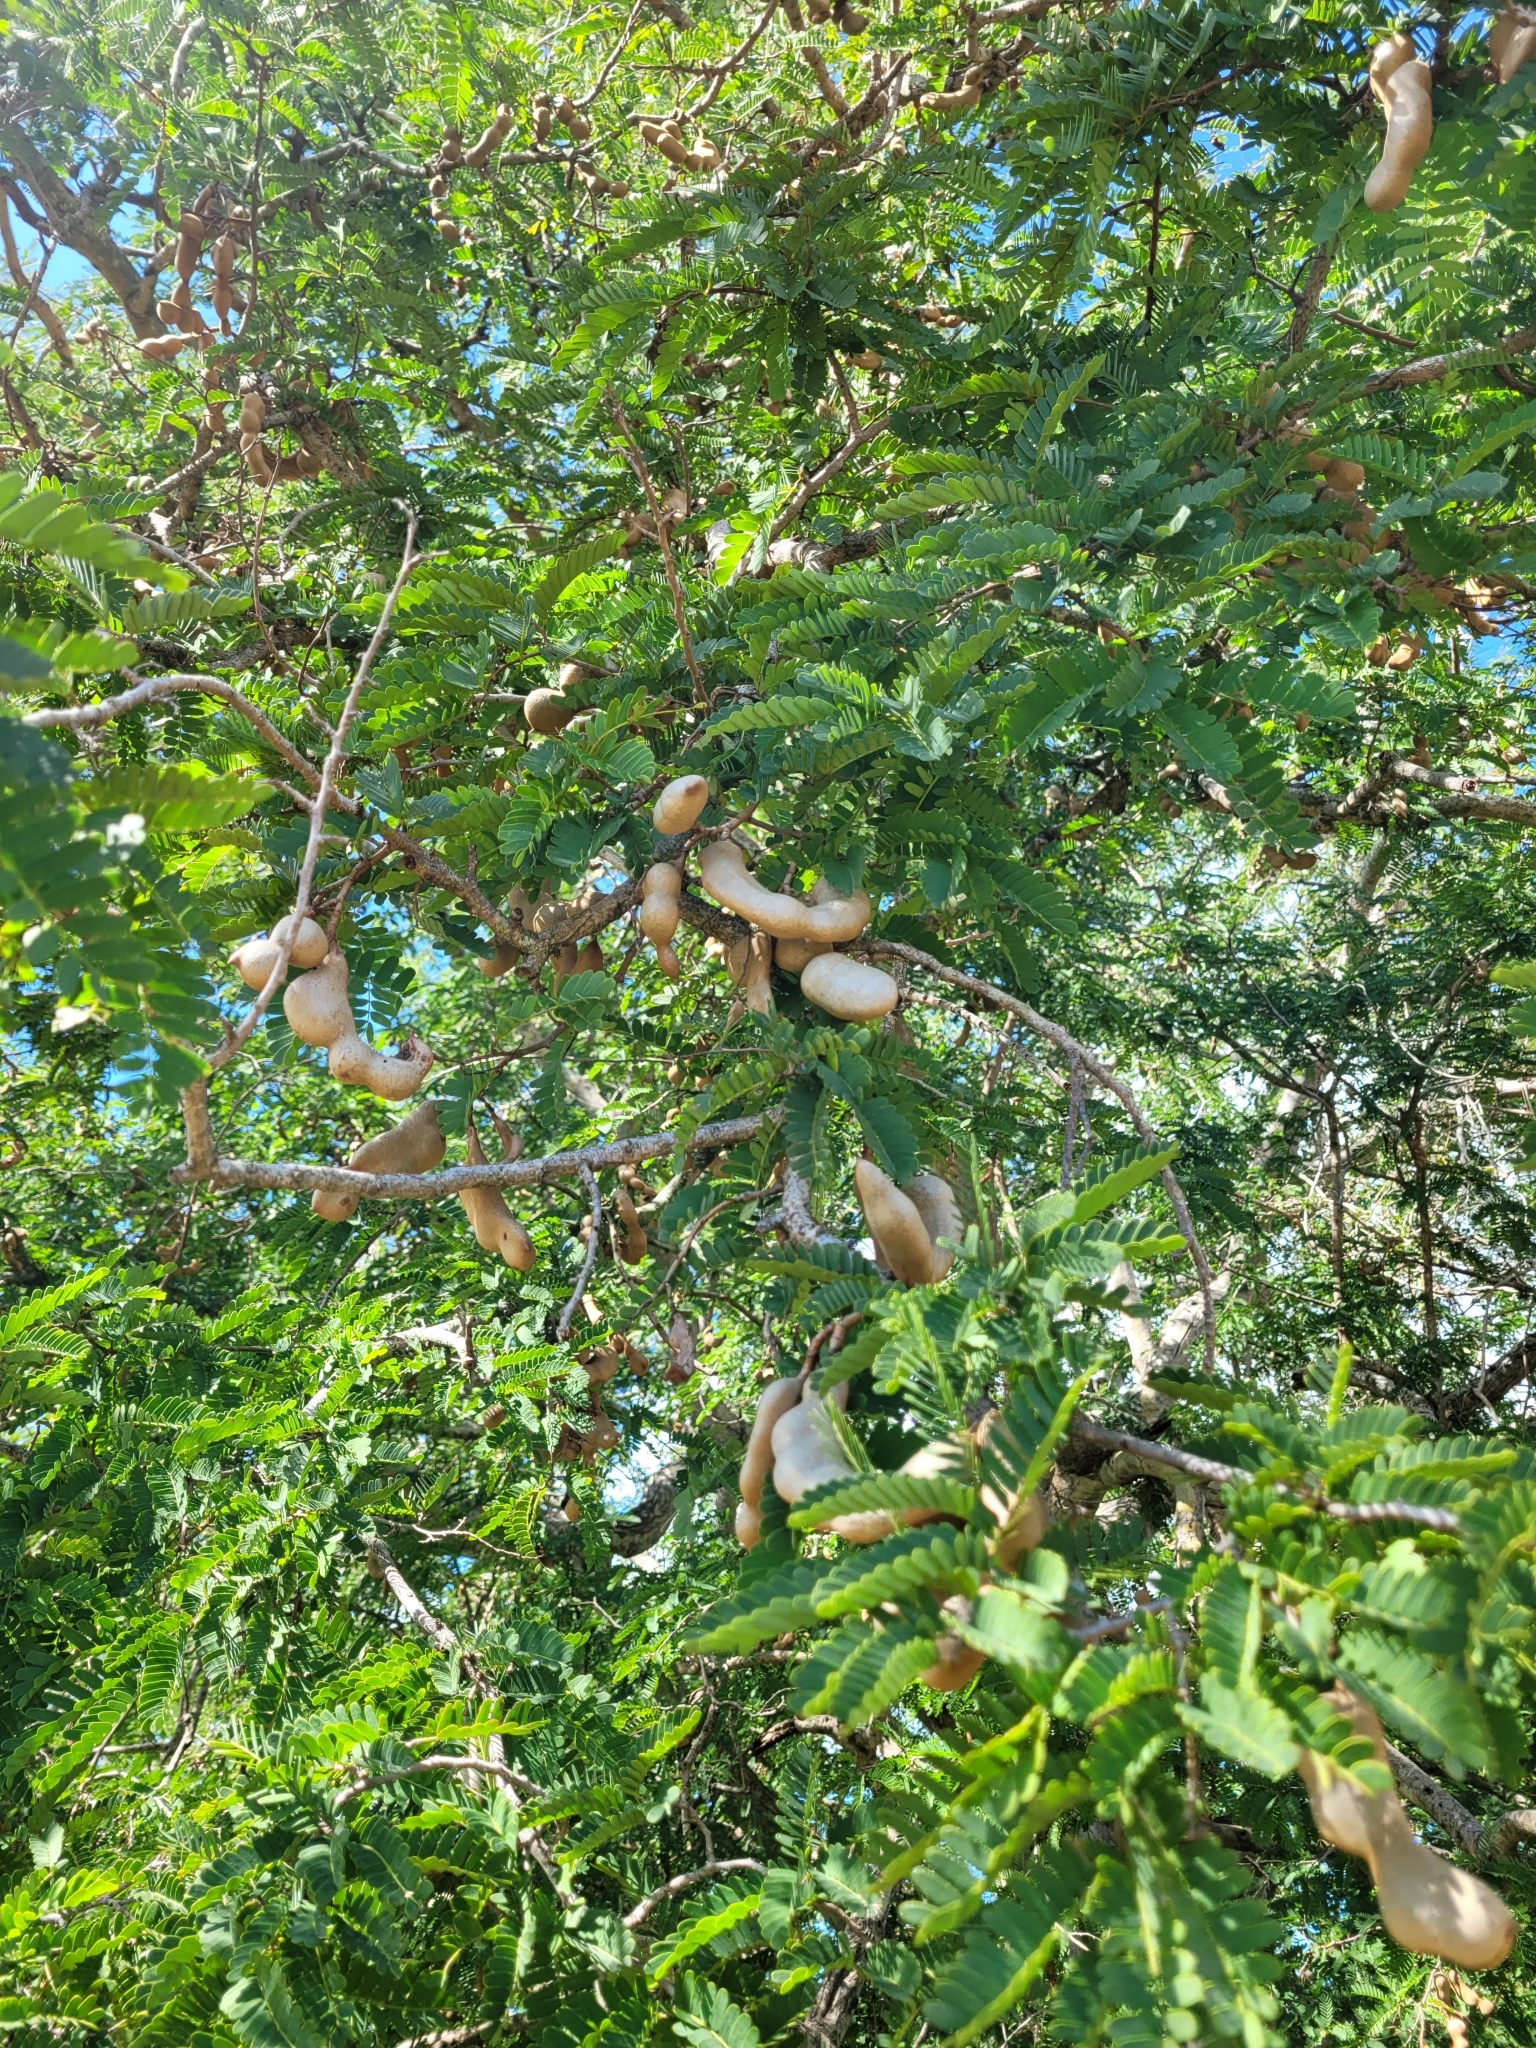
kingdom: Plantae
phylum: Tracheophyta
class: Magnoliopsida
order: Fabales
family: Fabaceae
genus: Tamarindus
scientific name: Tamarindus indica
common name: Tamarind
